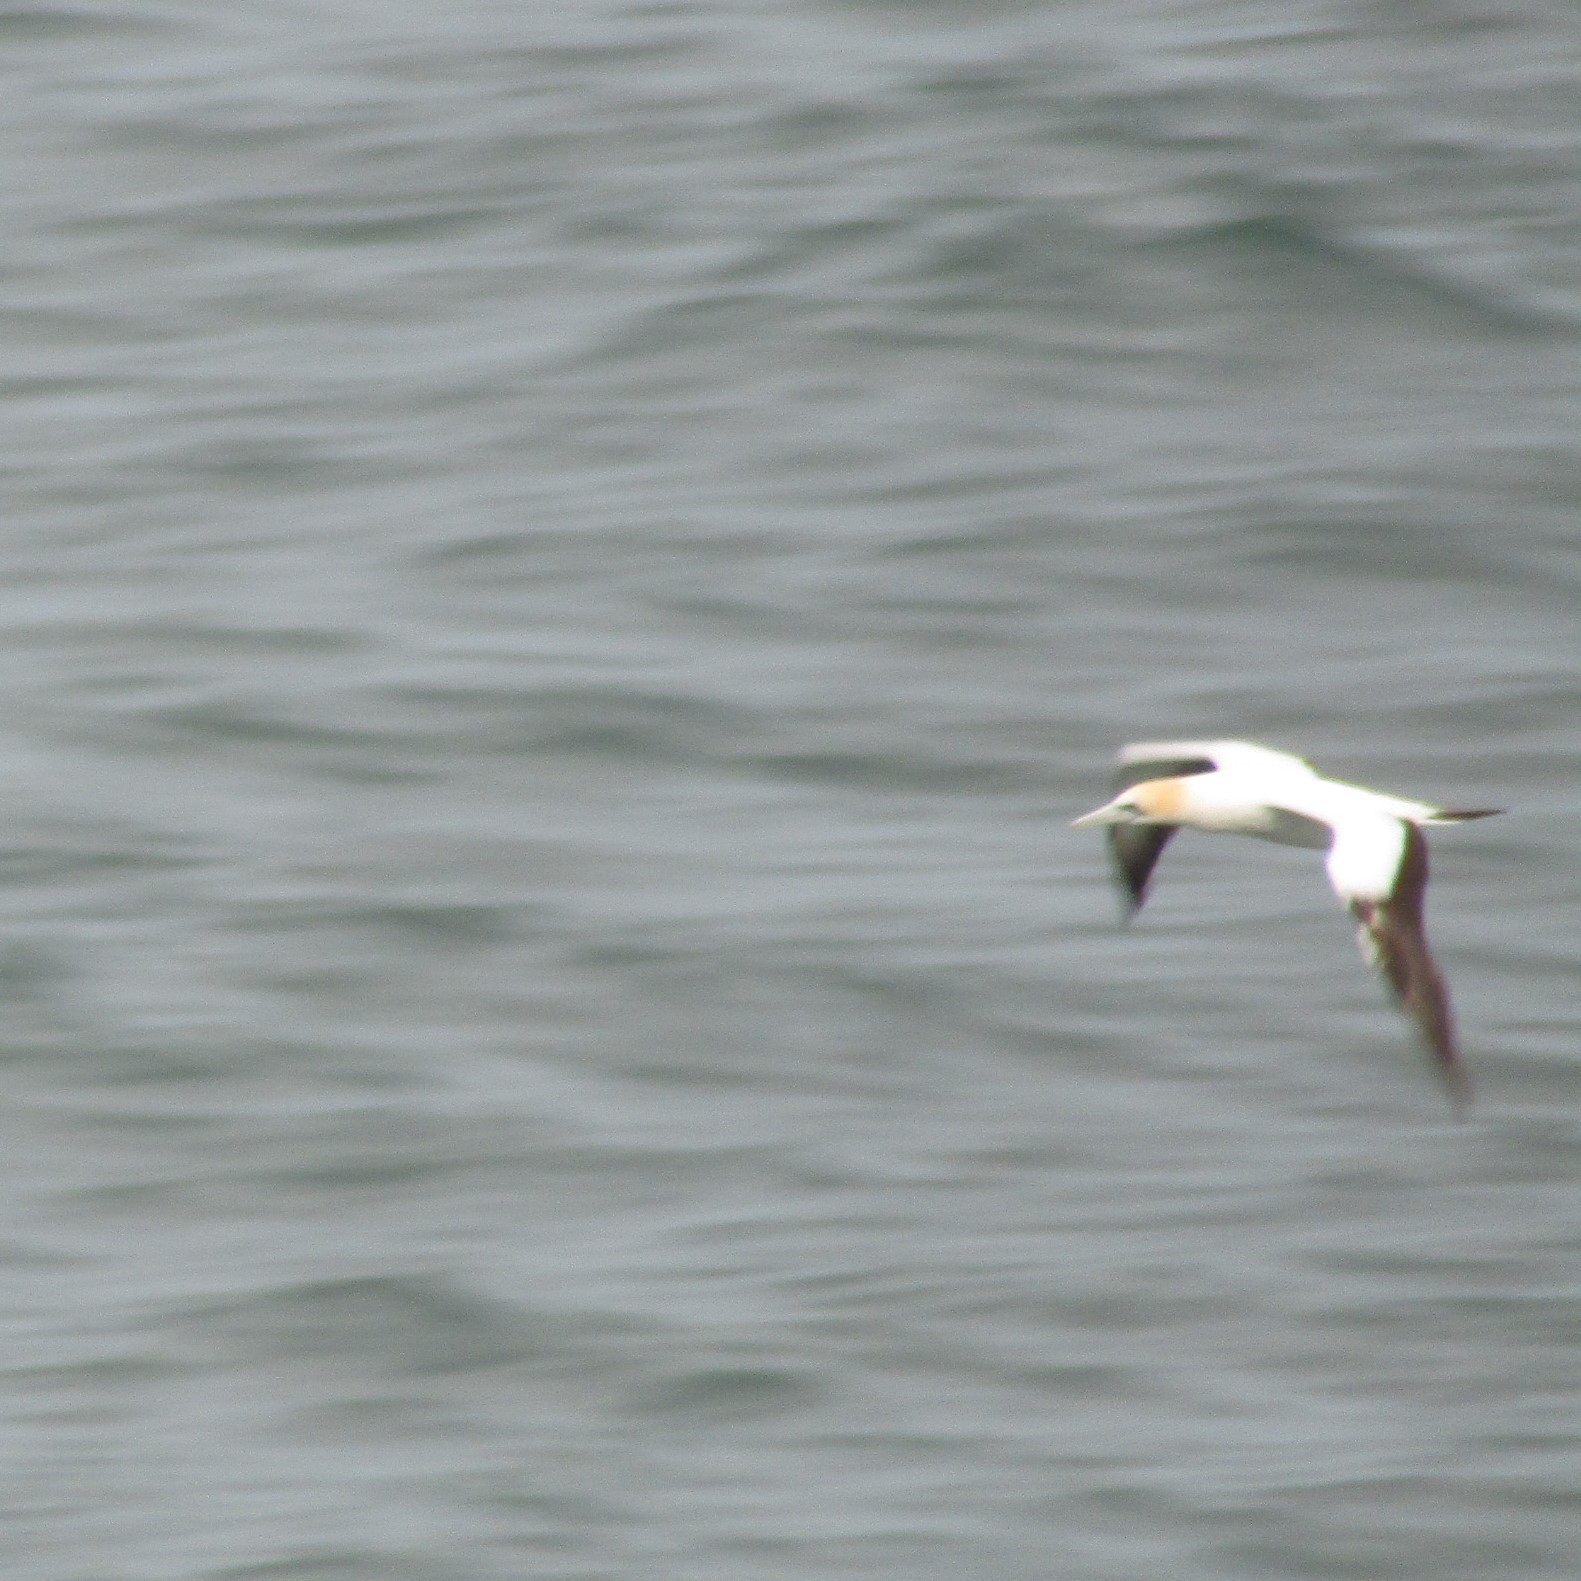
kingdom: Animalia
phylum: Chordata
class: Aves
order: Suliformes
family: Sulidae
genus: Morus
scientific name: Morus serrator
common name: Australasian gannet
